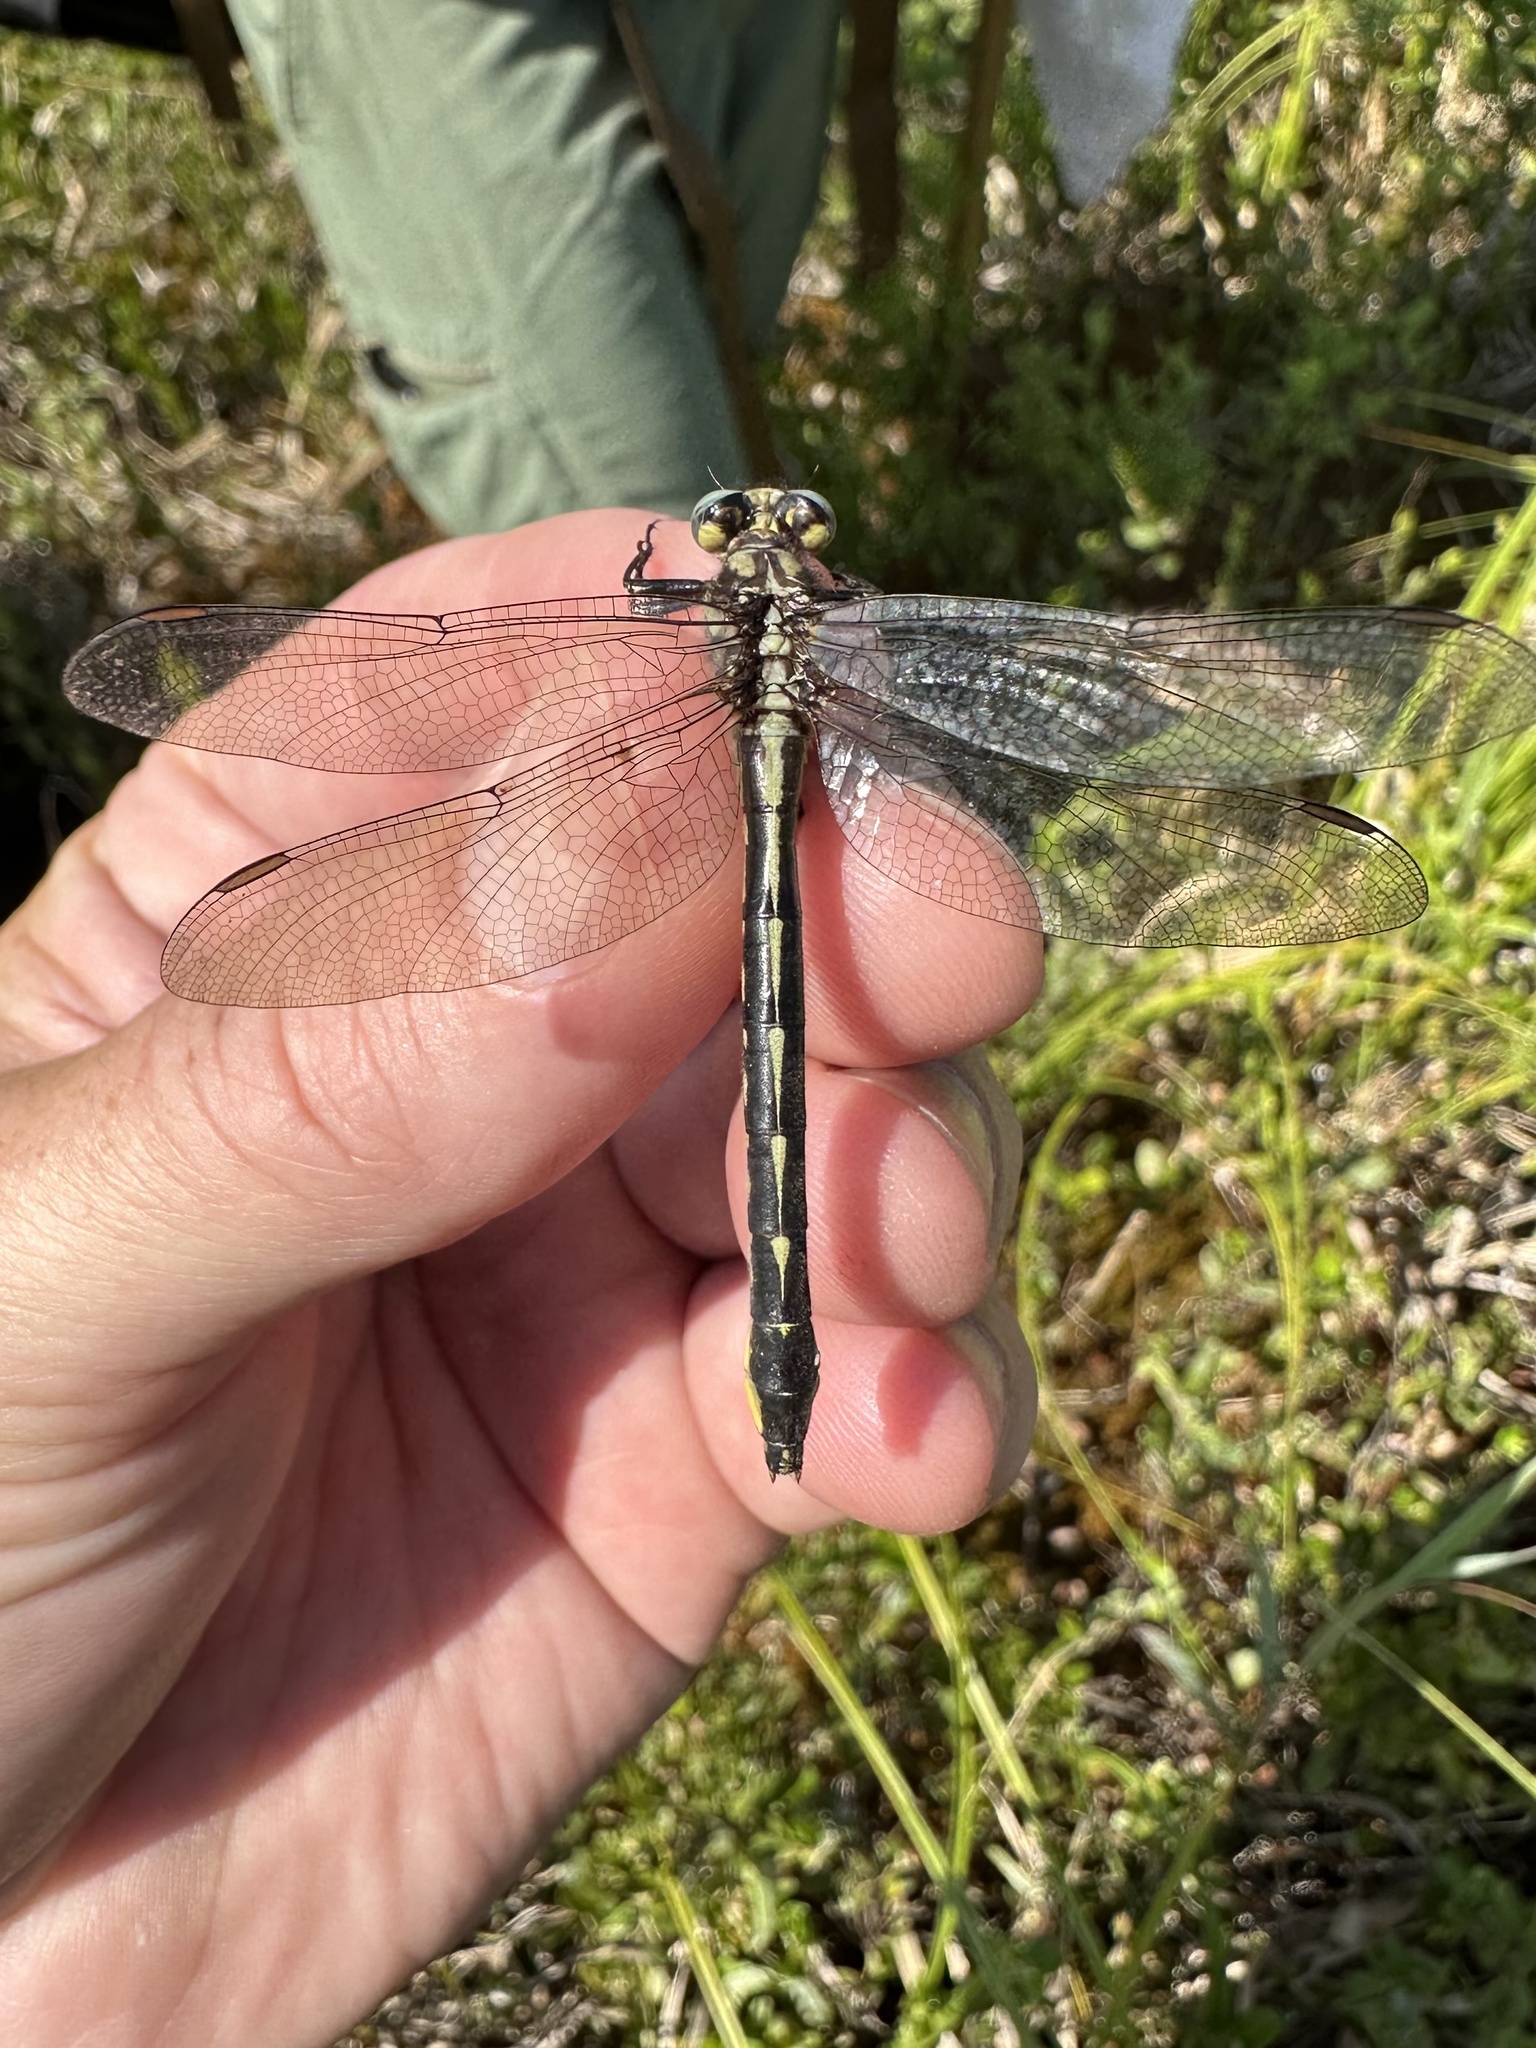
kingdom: Animalia
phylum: Arthropoda
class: Insecta
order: Odonata
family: Gomphidae
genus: Phanogomphus
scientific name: Phanogomphus borealis
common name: Beaverpond clubtail
